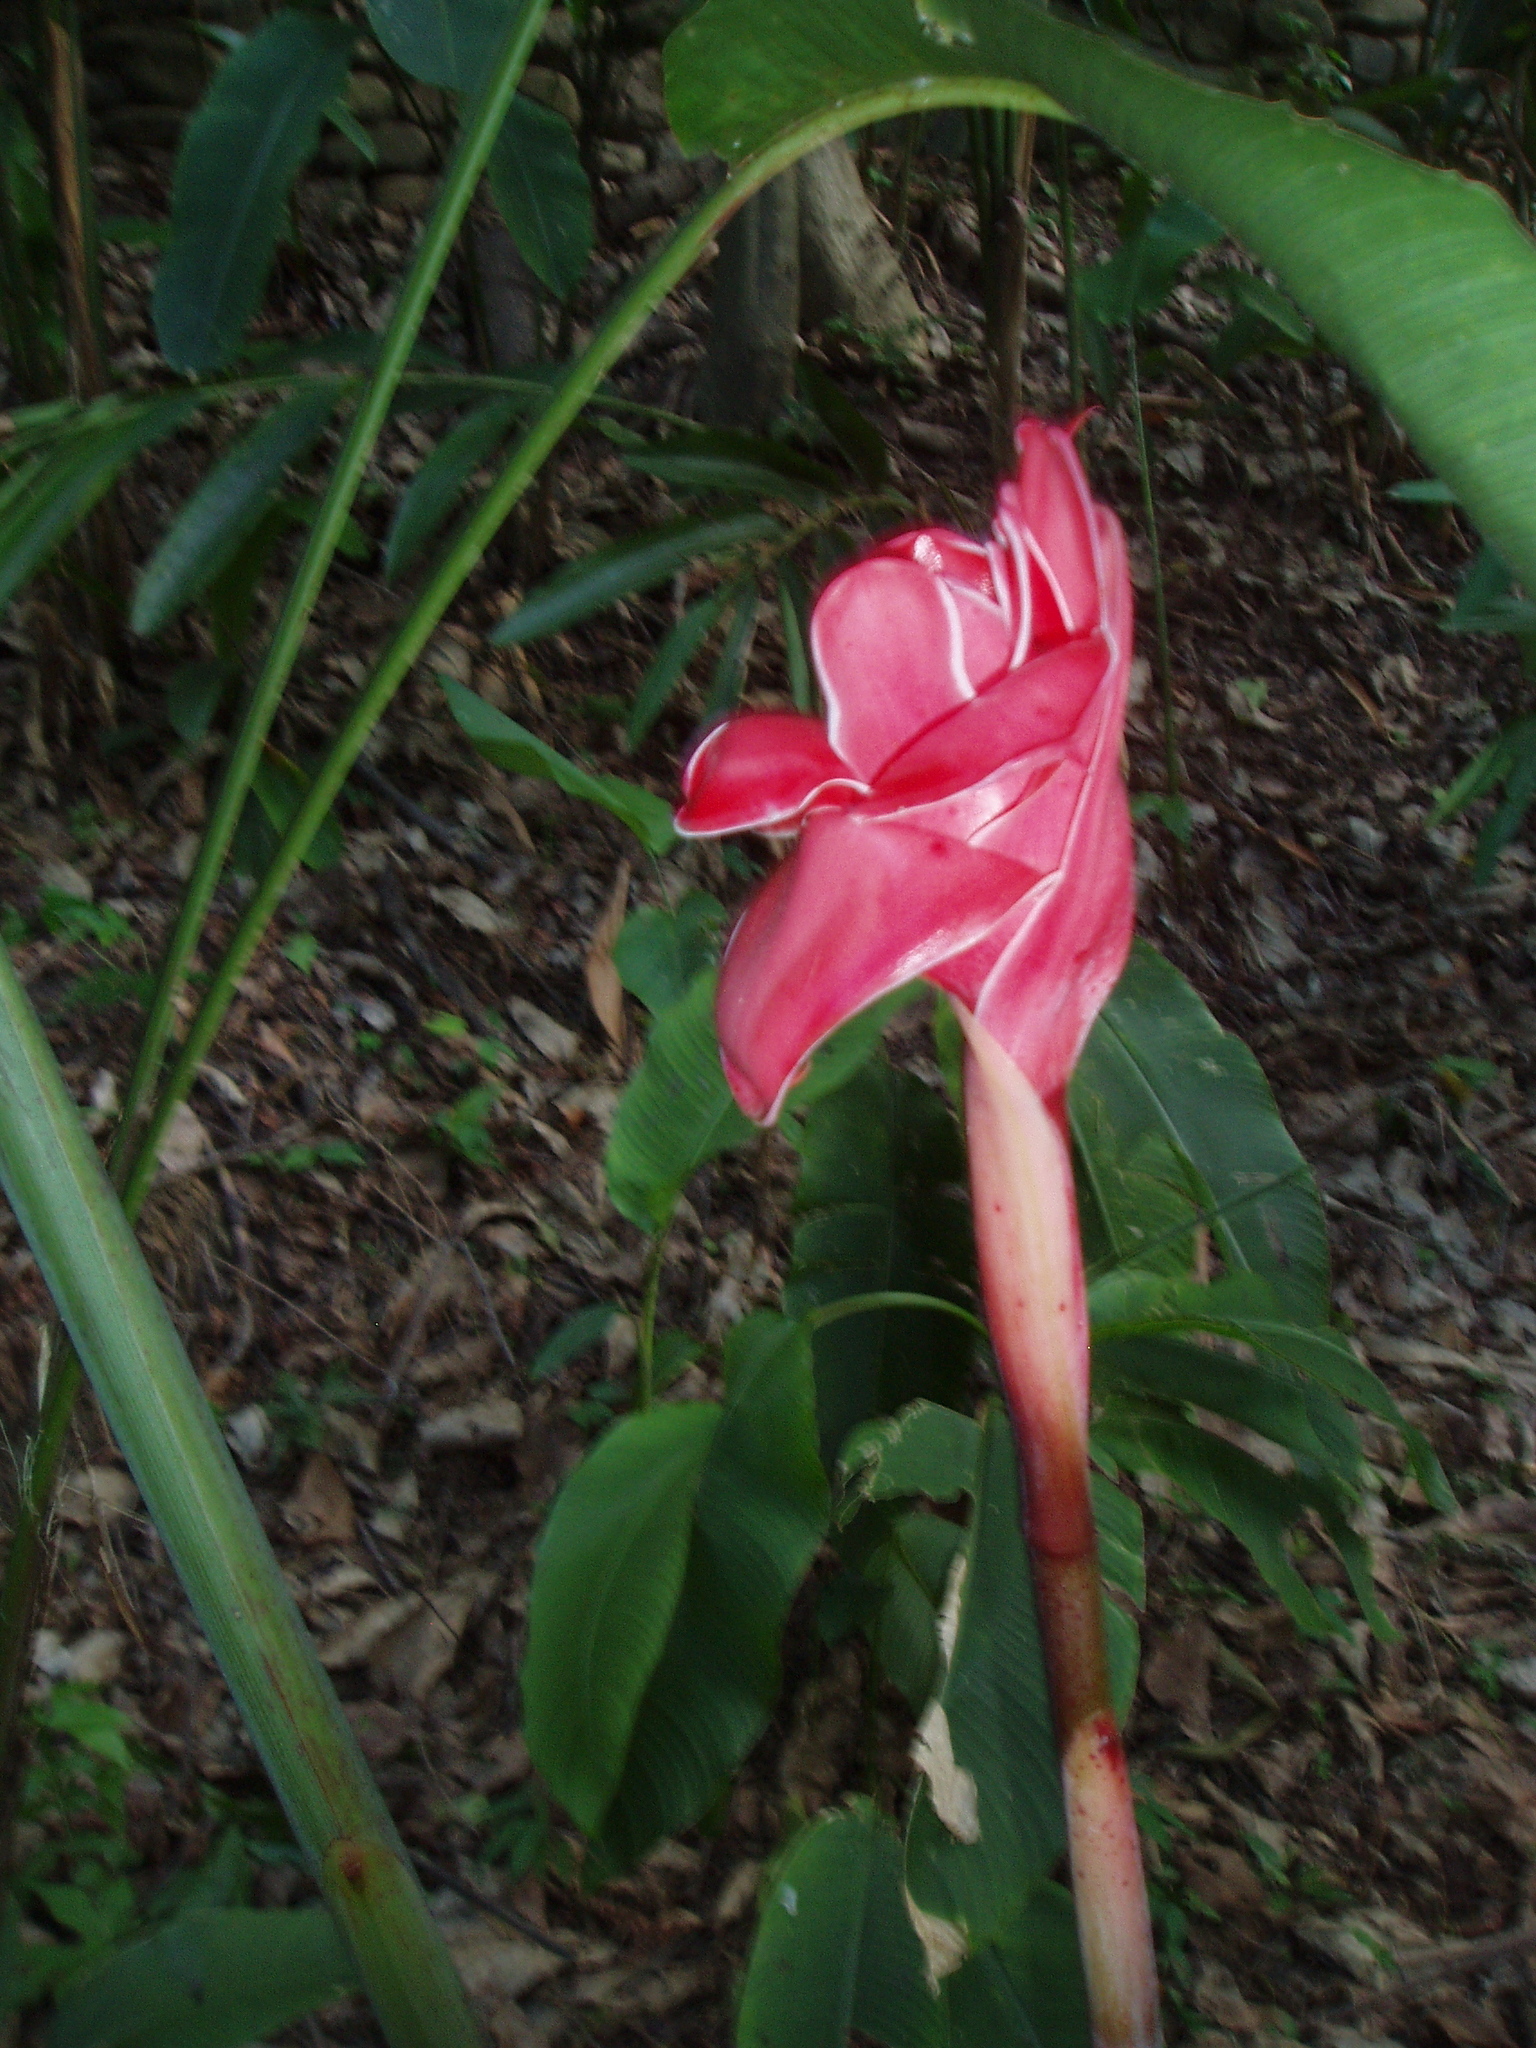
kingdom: Plantae
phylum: Tracheophyta
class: Liliopsida
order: Zingiberales
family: Zingiberaceae
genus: Etlingera
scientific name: Etlingera elatior
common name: Philippine waxflower
